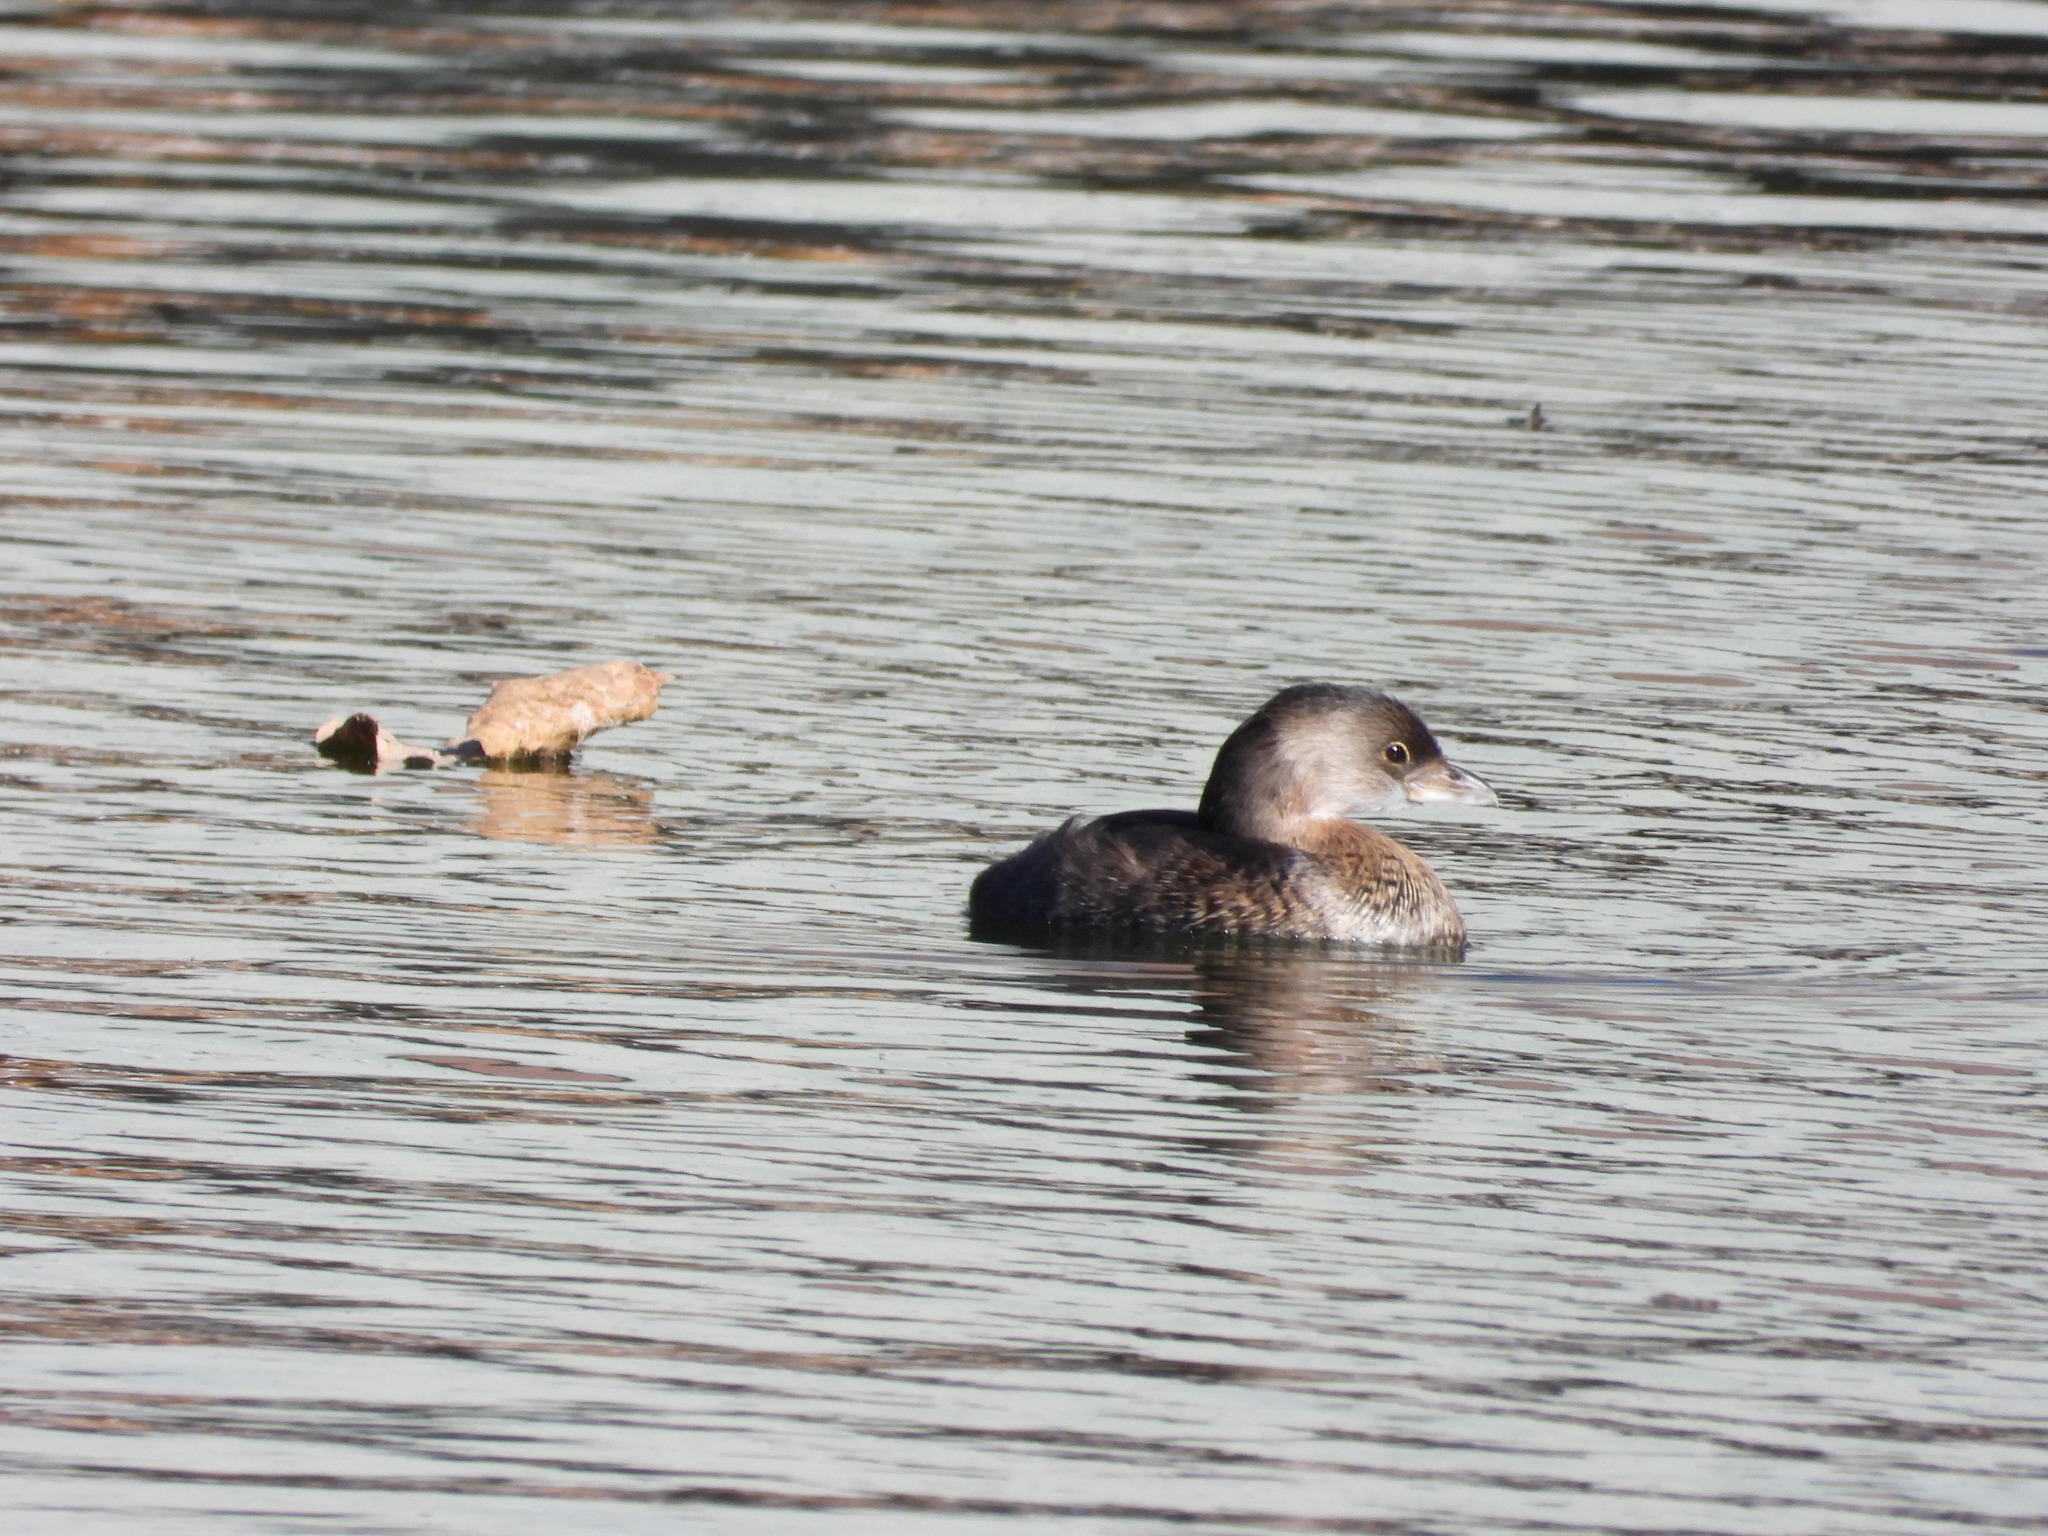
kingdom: Animalia
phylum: Chordata
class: Aves
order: Podicipediformes
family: Podicipedidae
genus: Podilymbus
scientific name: Podilymbus podiceps
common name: Pied-billed grebe
